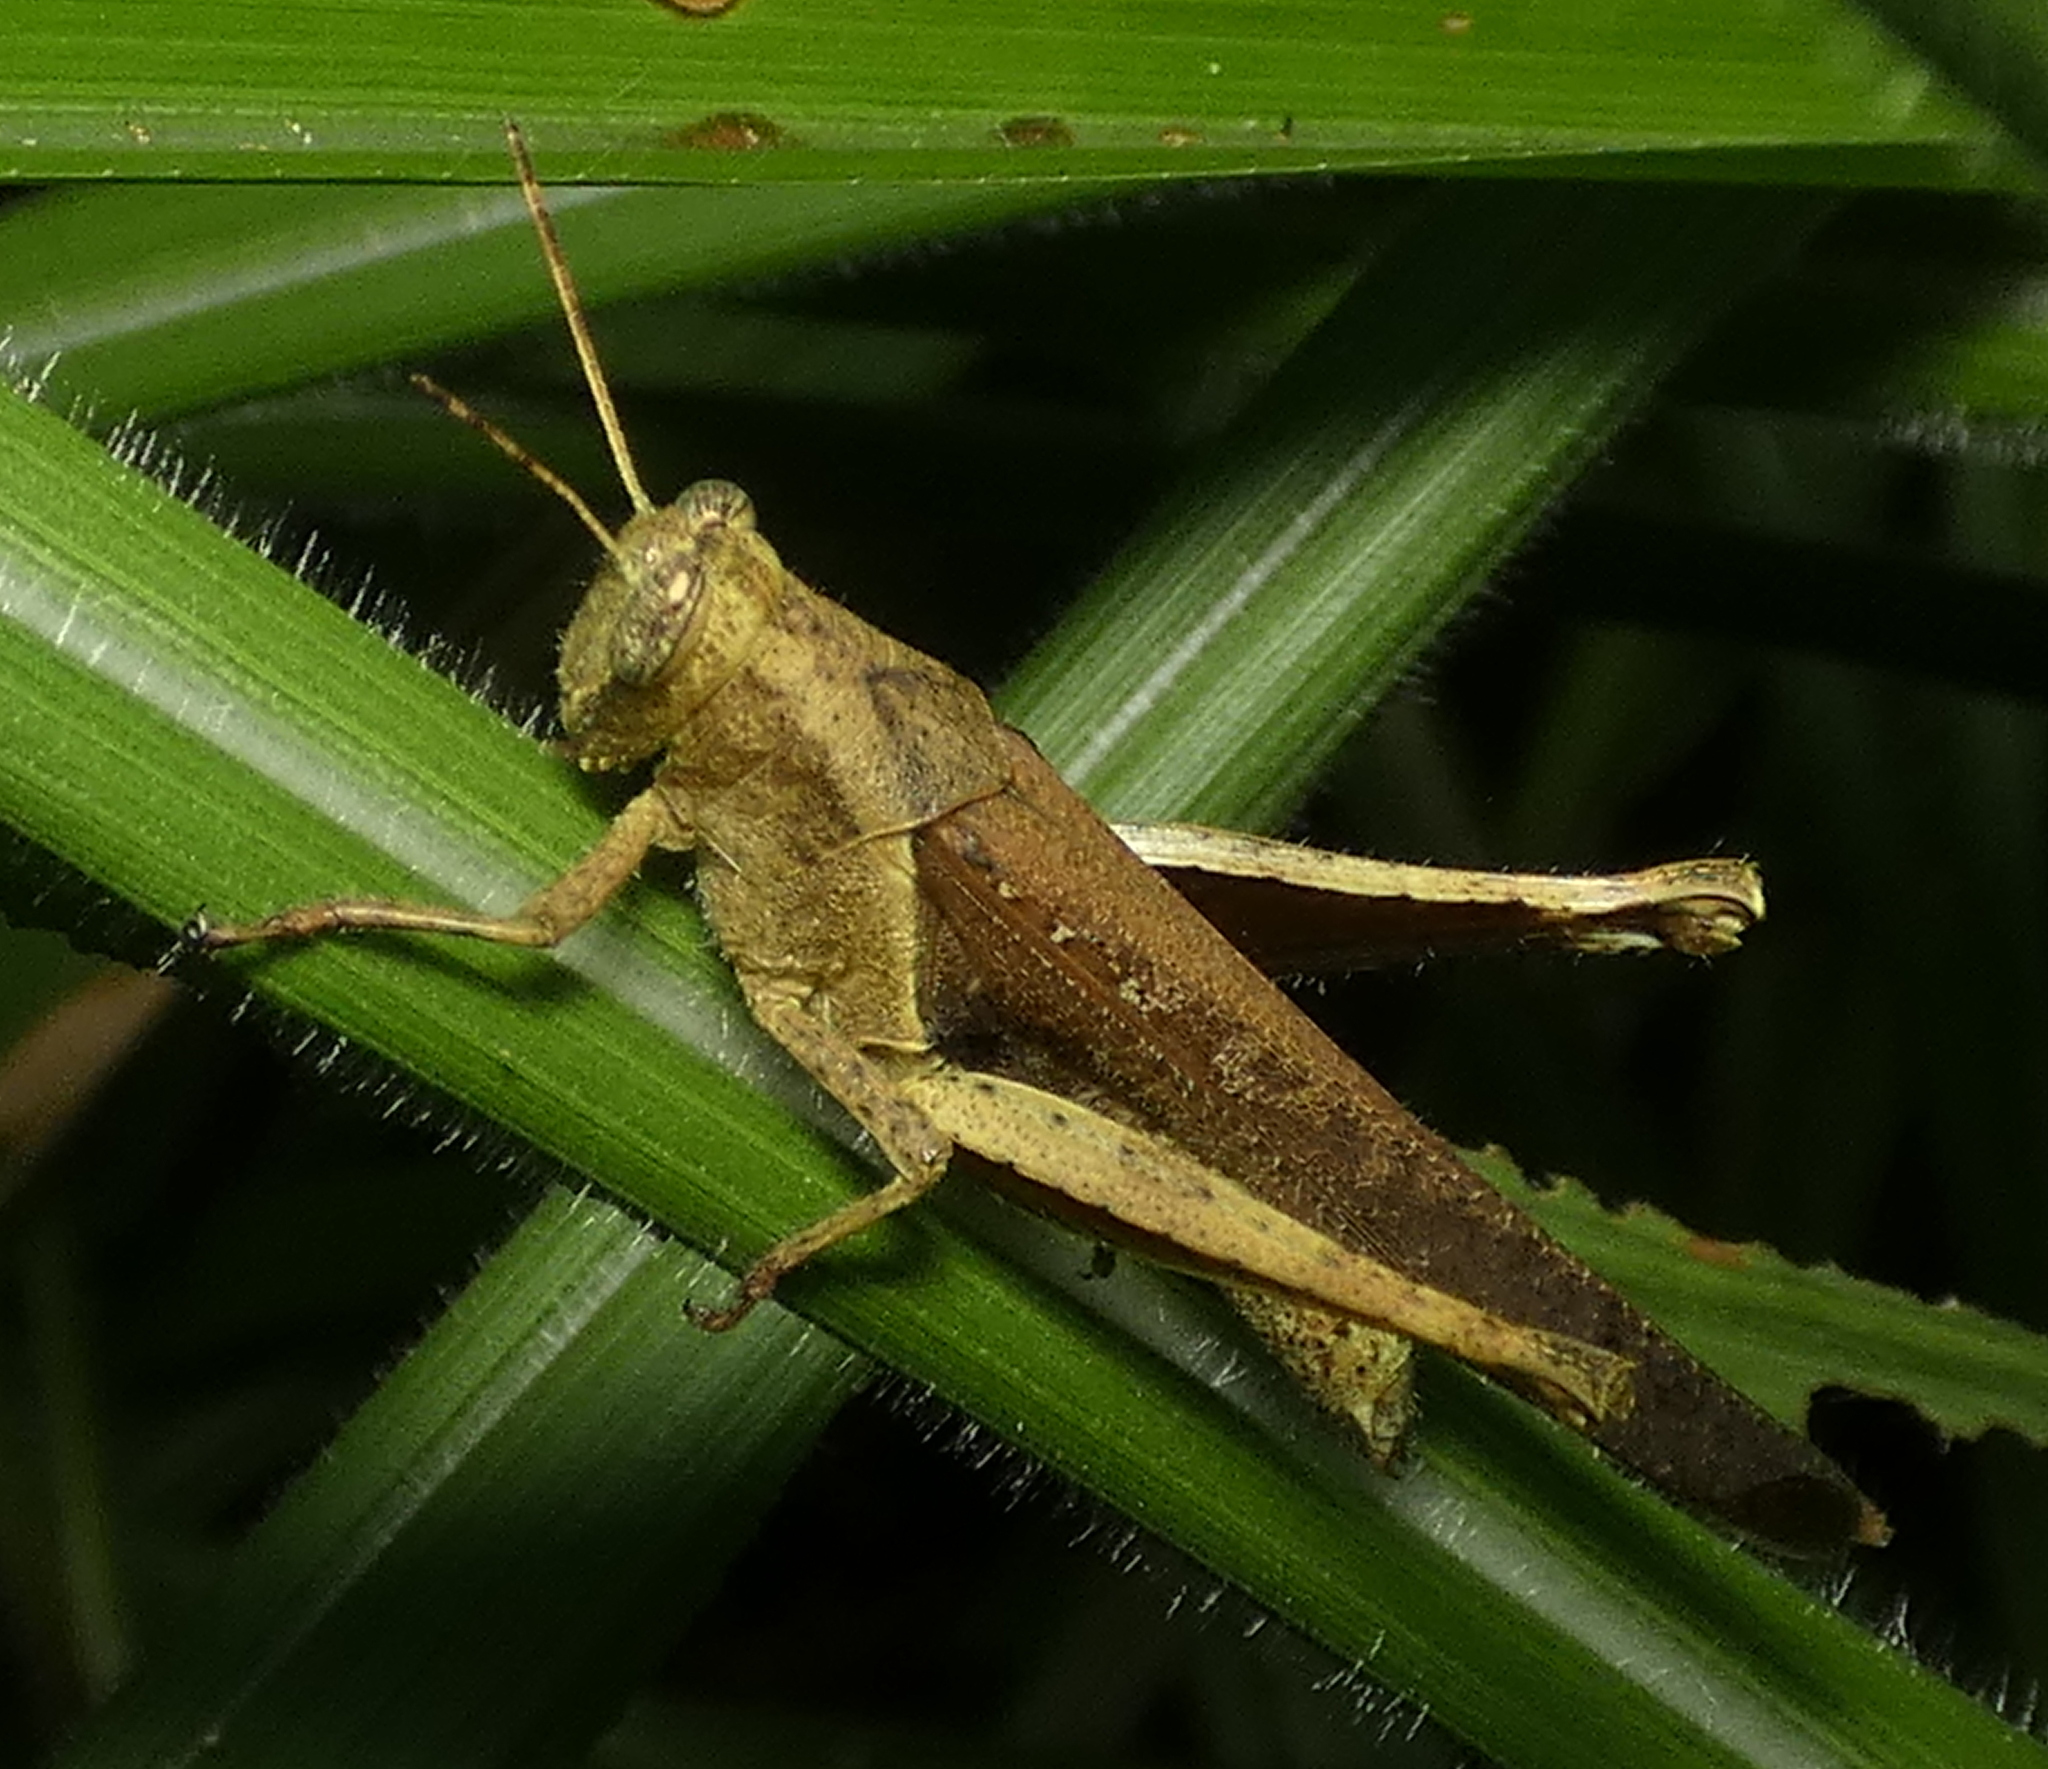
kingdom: Animalia
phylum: Arthropoda
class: Insecta
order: Orthoptera
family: Acrididae
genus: Abracris
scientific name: Abracris flavolineata
